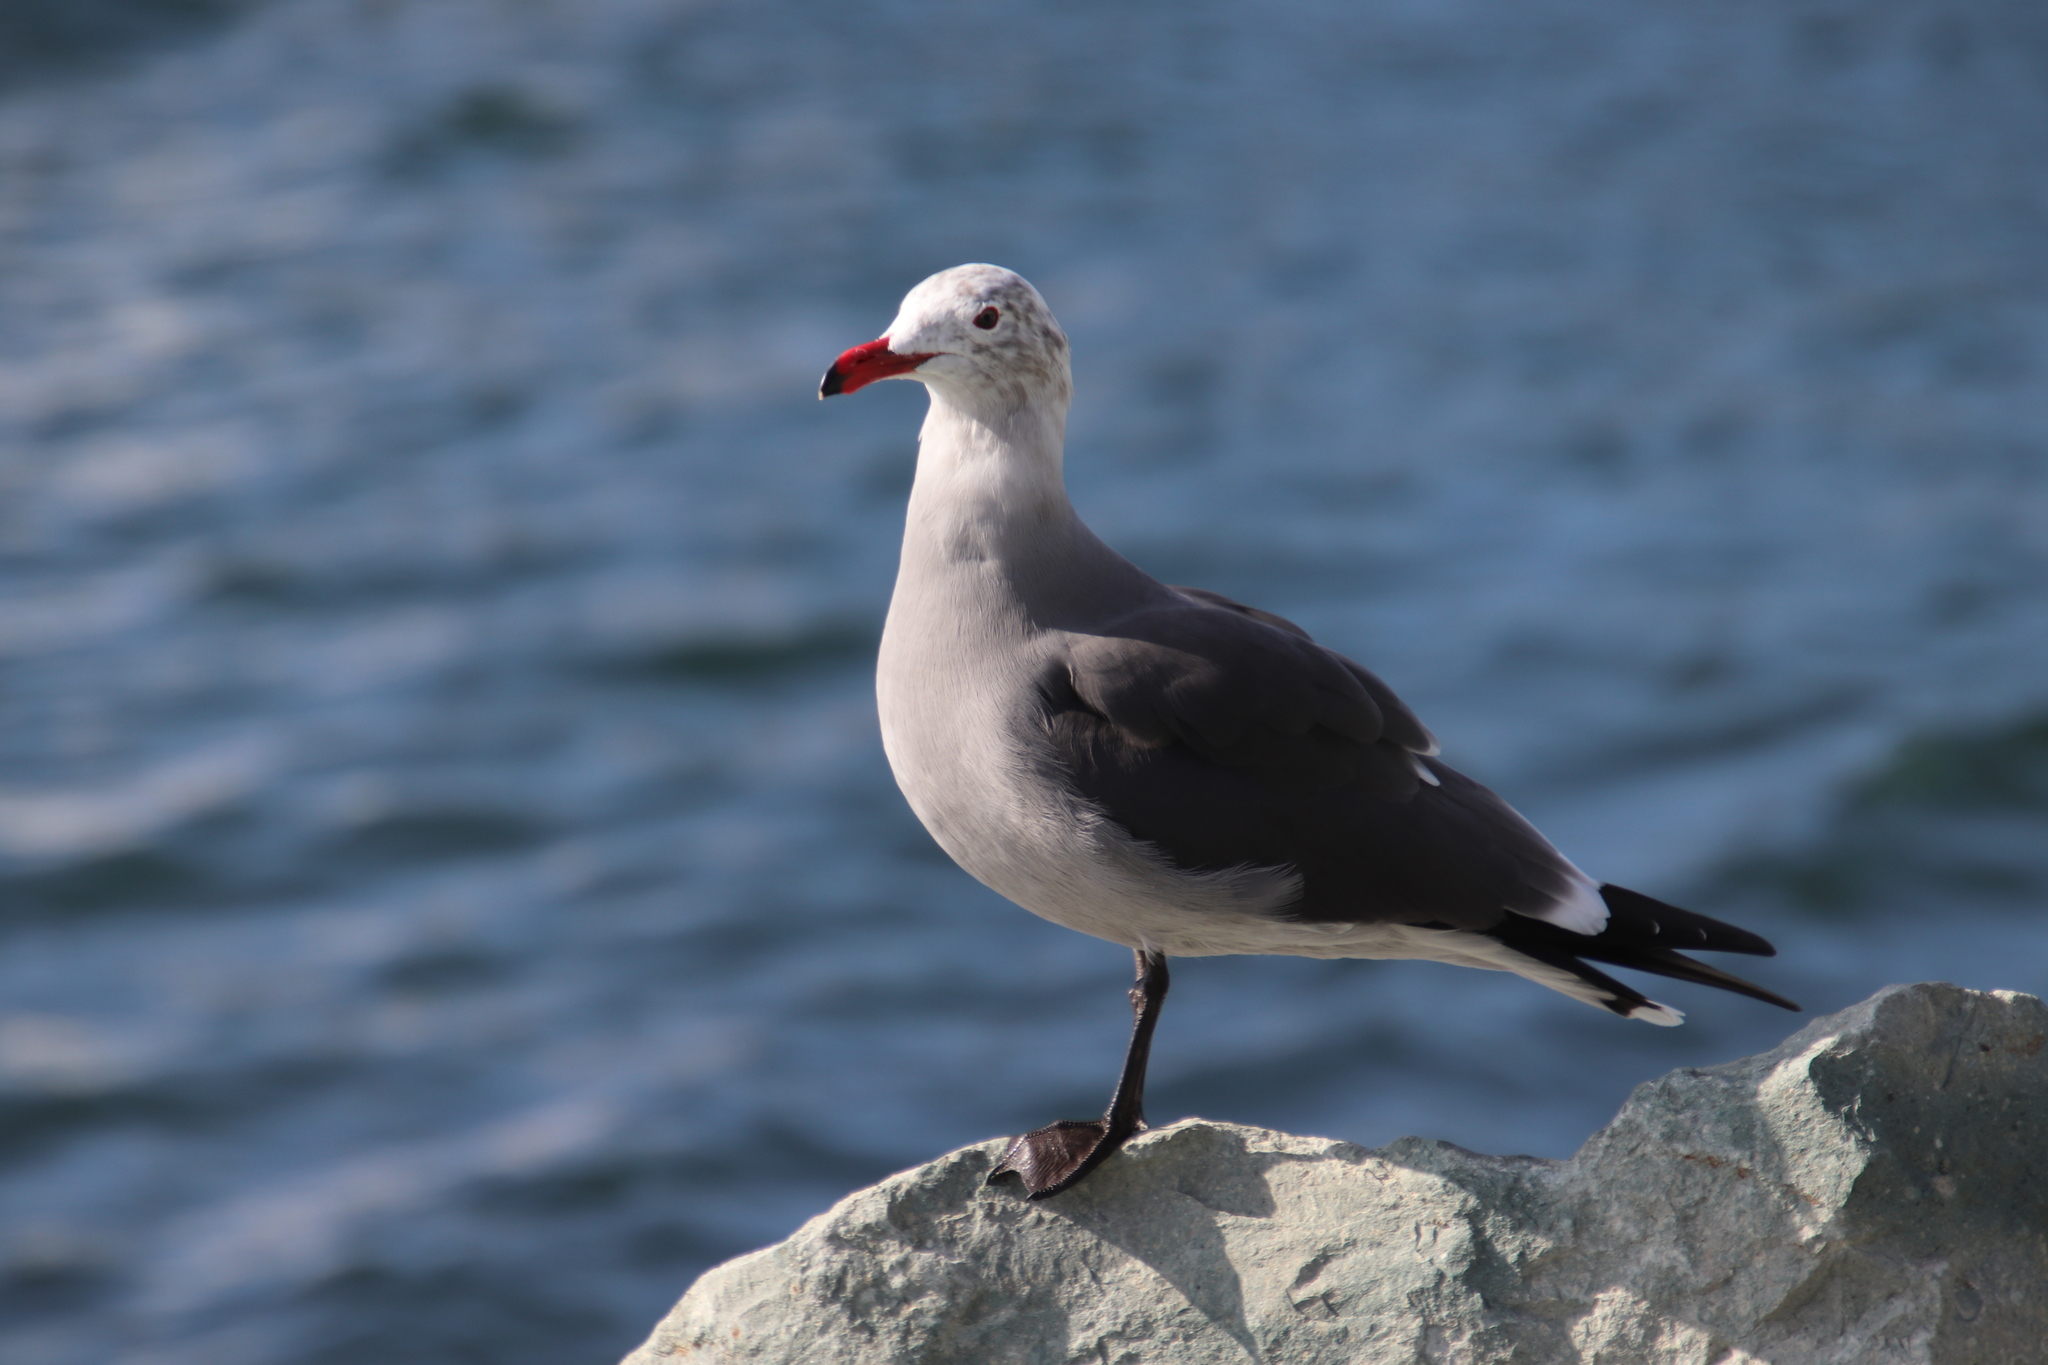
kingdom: Animalia
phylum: Chordata
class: Aves
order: Charadriiformes
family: Laridae
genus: Larus
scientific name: Larus heermanni
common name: Heermann's gull
